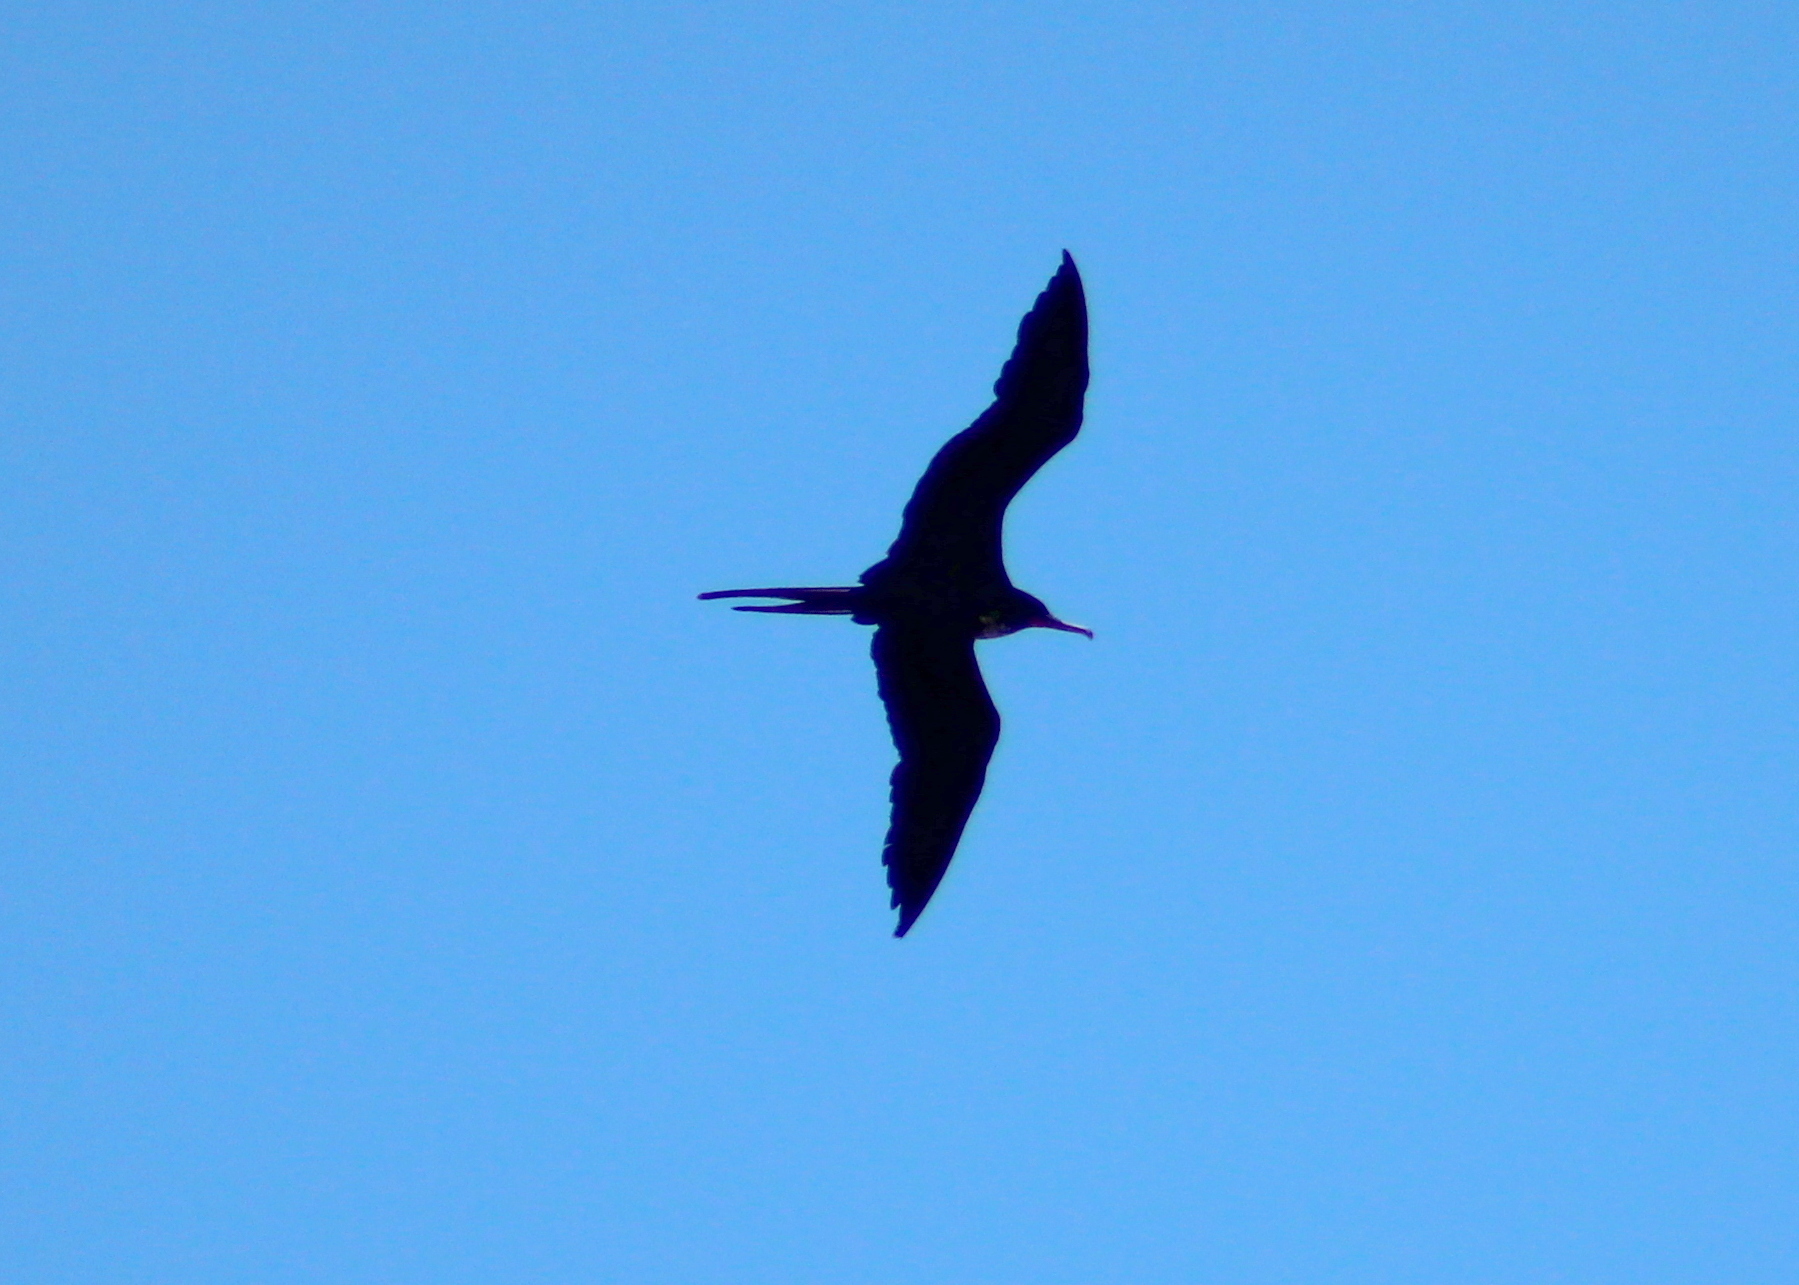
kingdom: Animalia
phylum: Chordata
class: Aves
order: Suliformes
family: Fregatidae
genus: Fregata
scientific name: Fregata minor
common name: Great frigatebird
